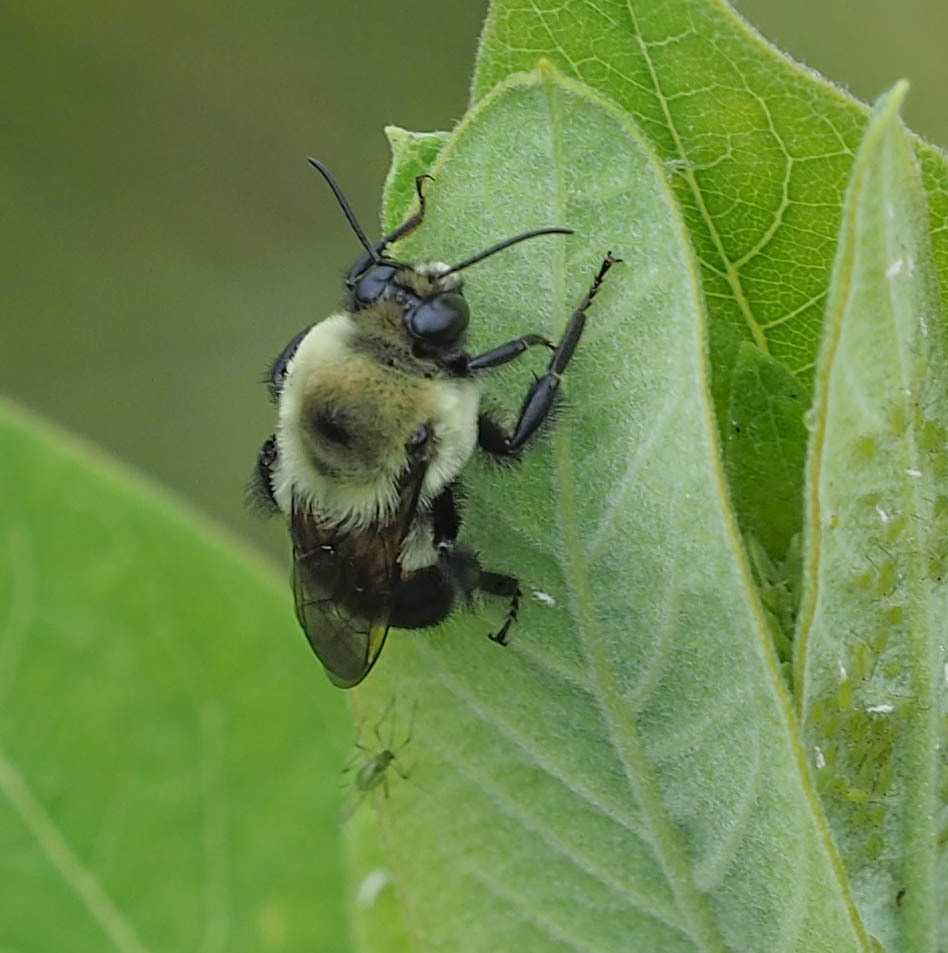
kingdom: Animalia
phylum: Arthropoda
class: Insecta
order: Hymenoptera
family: Apidae
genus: Bombus
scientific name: Bombus griseocollis
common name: Brown-belted bumble bee
